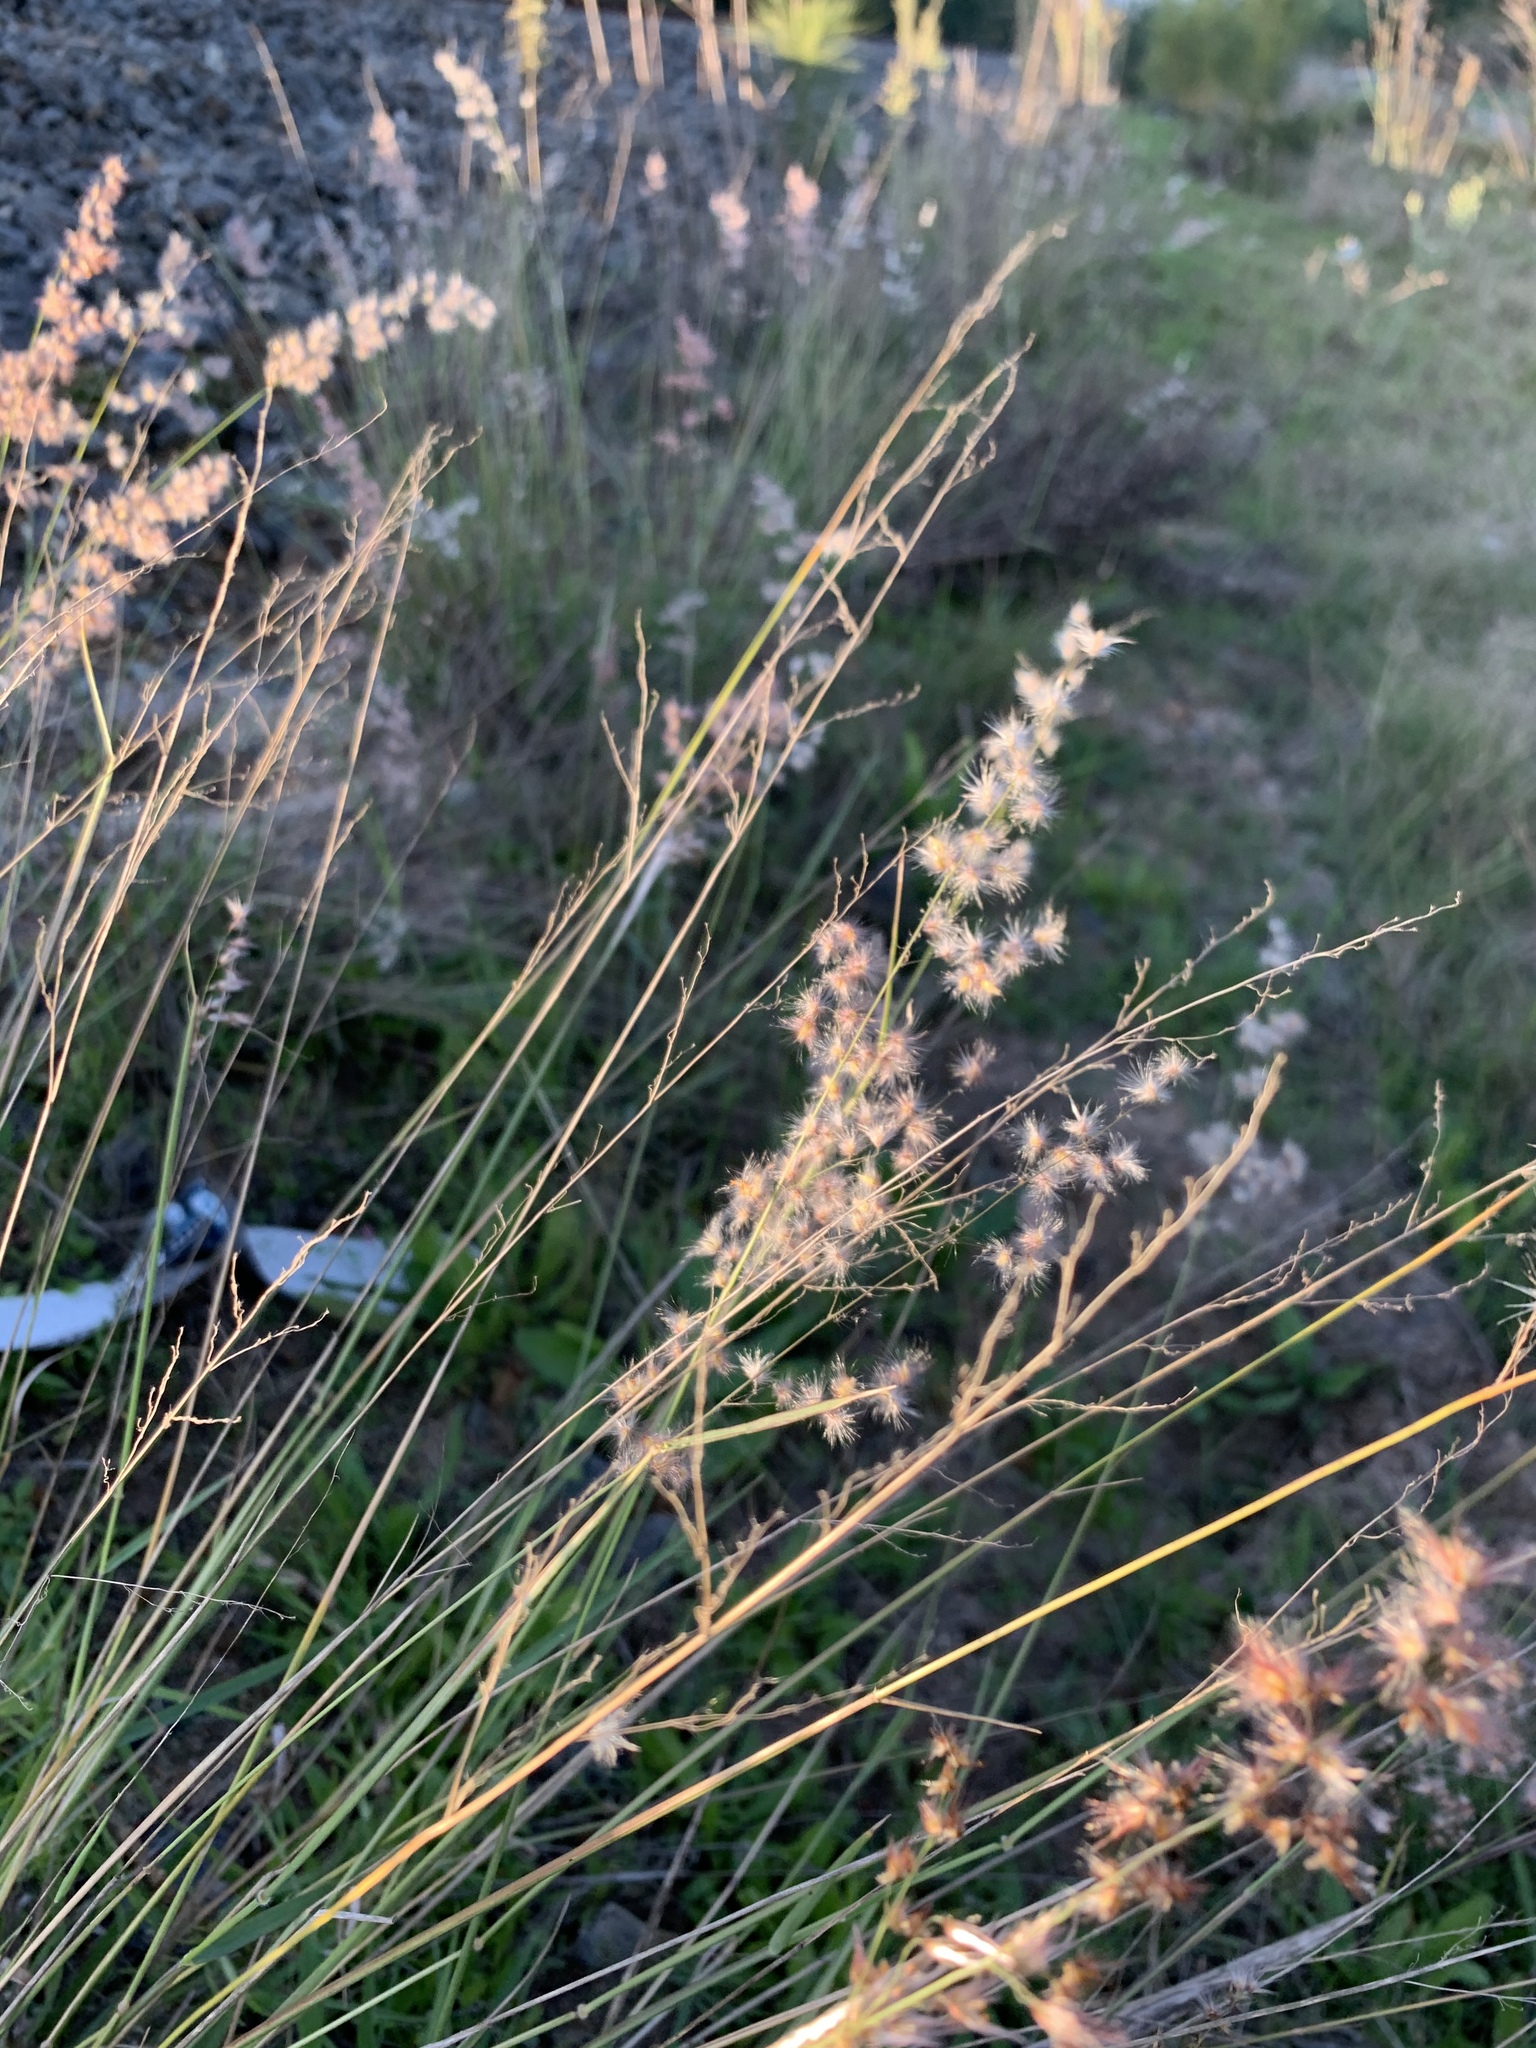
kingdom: Plantae
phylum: Tracheophyta
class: Liliopsida
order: Poales
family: Poaceae
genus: Melinis
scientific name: Melinis repens
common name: Rose natal grass
